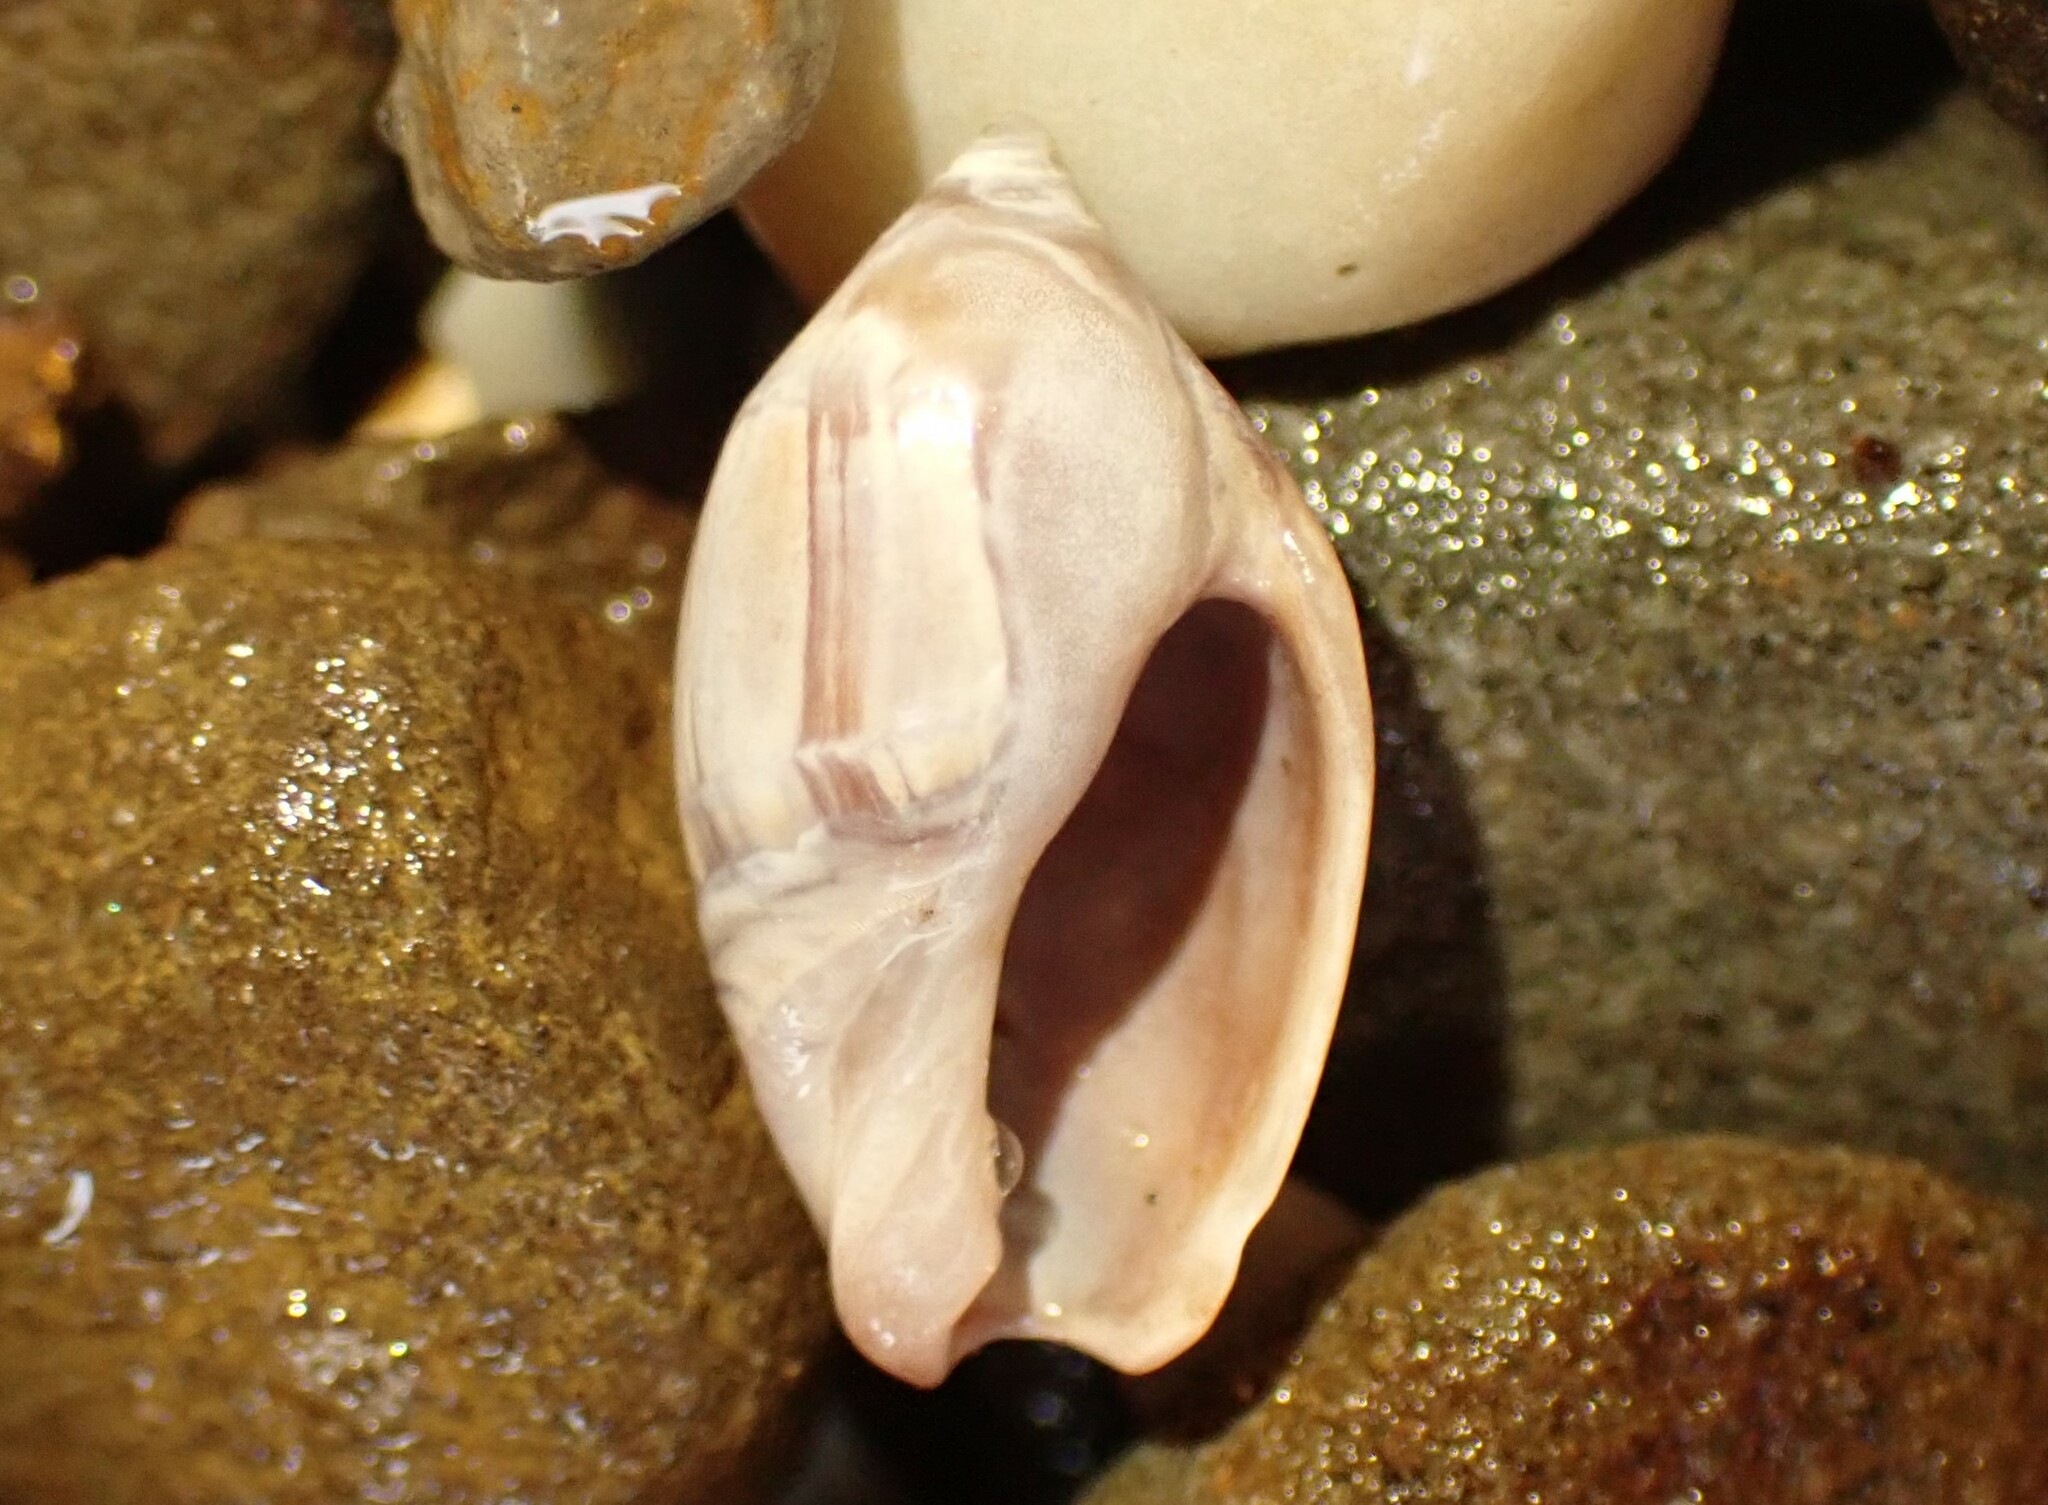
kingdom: Animalia
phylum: Mollusca
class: Gastropoda
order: Neogastropoda
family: Ancillariidae
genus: Amalda
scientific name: Amalda depressa
